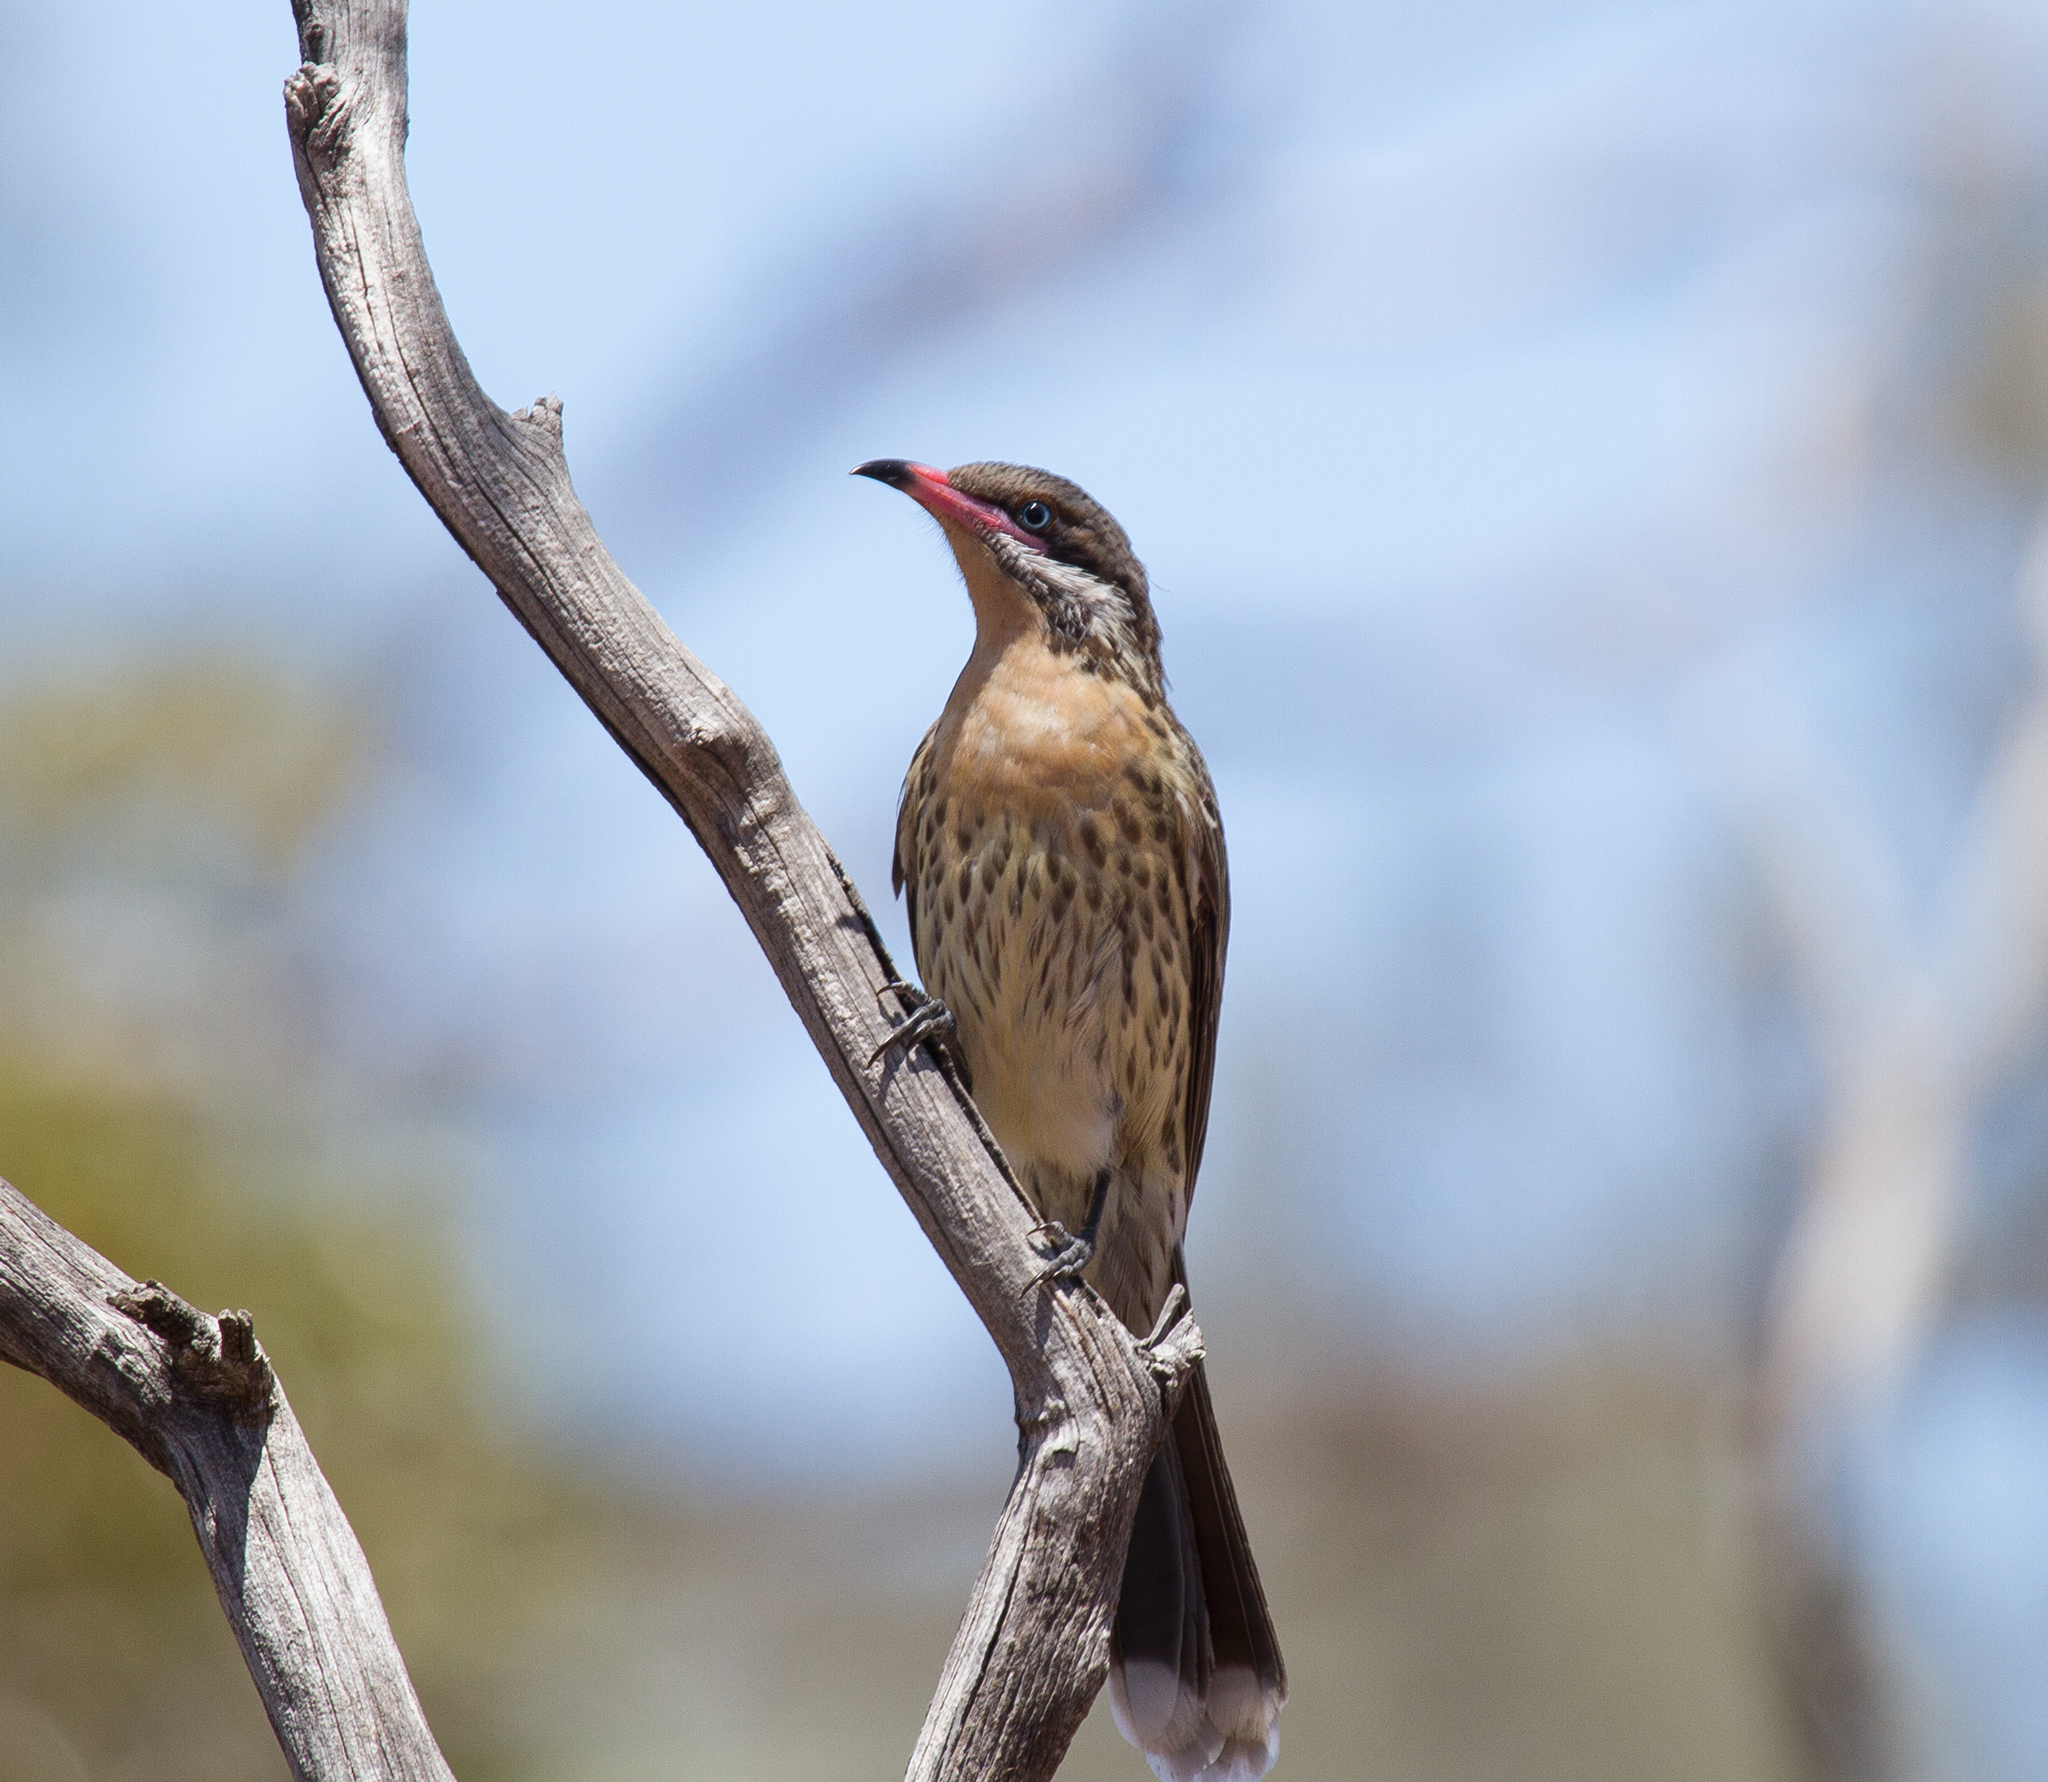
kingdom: Animalia
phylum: Chordata
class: Aves
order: Passeriformes
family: Meliphagidae
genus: Acanthagenys
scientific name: Acanthagenys rufogularis
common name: Spiny-cheeked honeyeater
